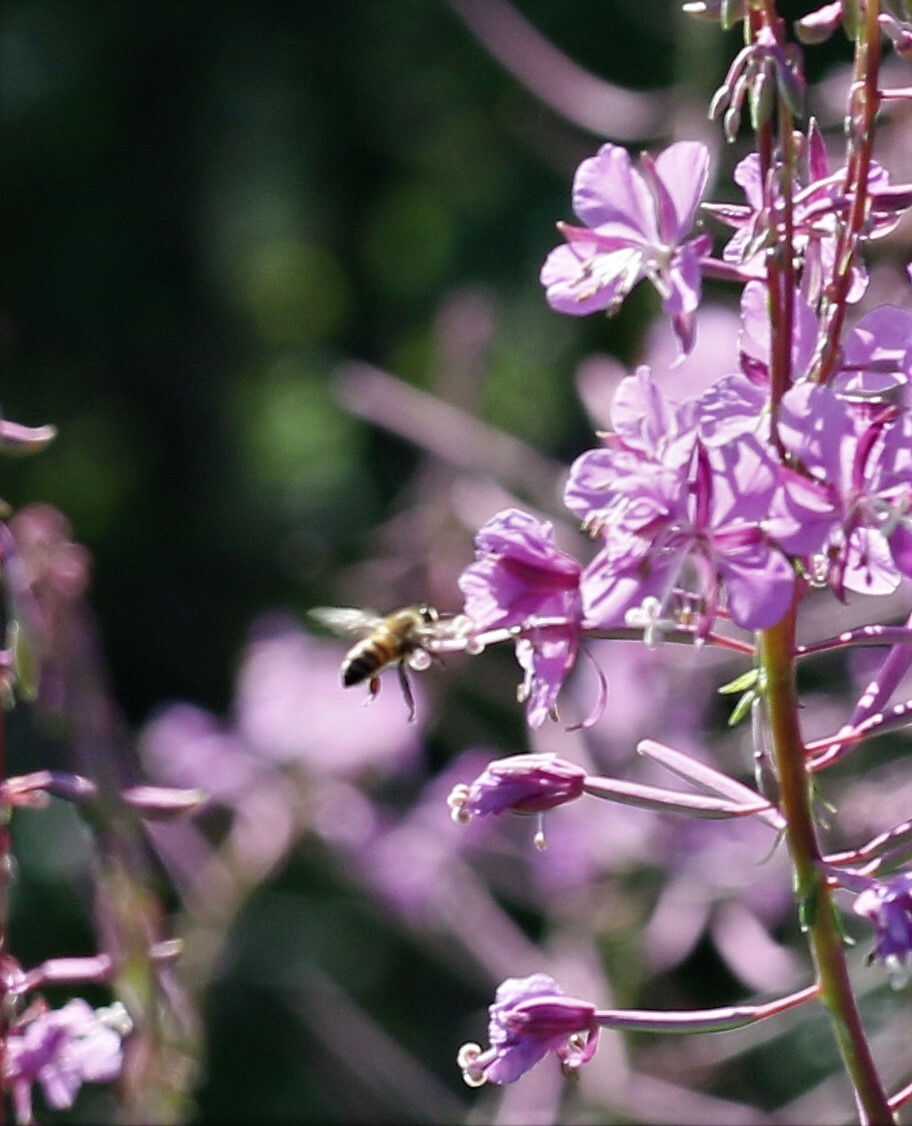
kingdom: Animalia
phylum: Arthropoda
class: Insecta
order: Hymenoptera
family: Apidae
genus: Apis
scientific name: Apis mellifera
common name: Honey bee
